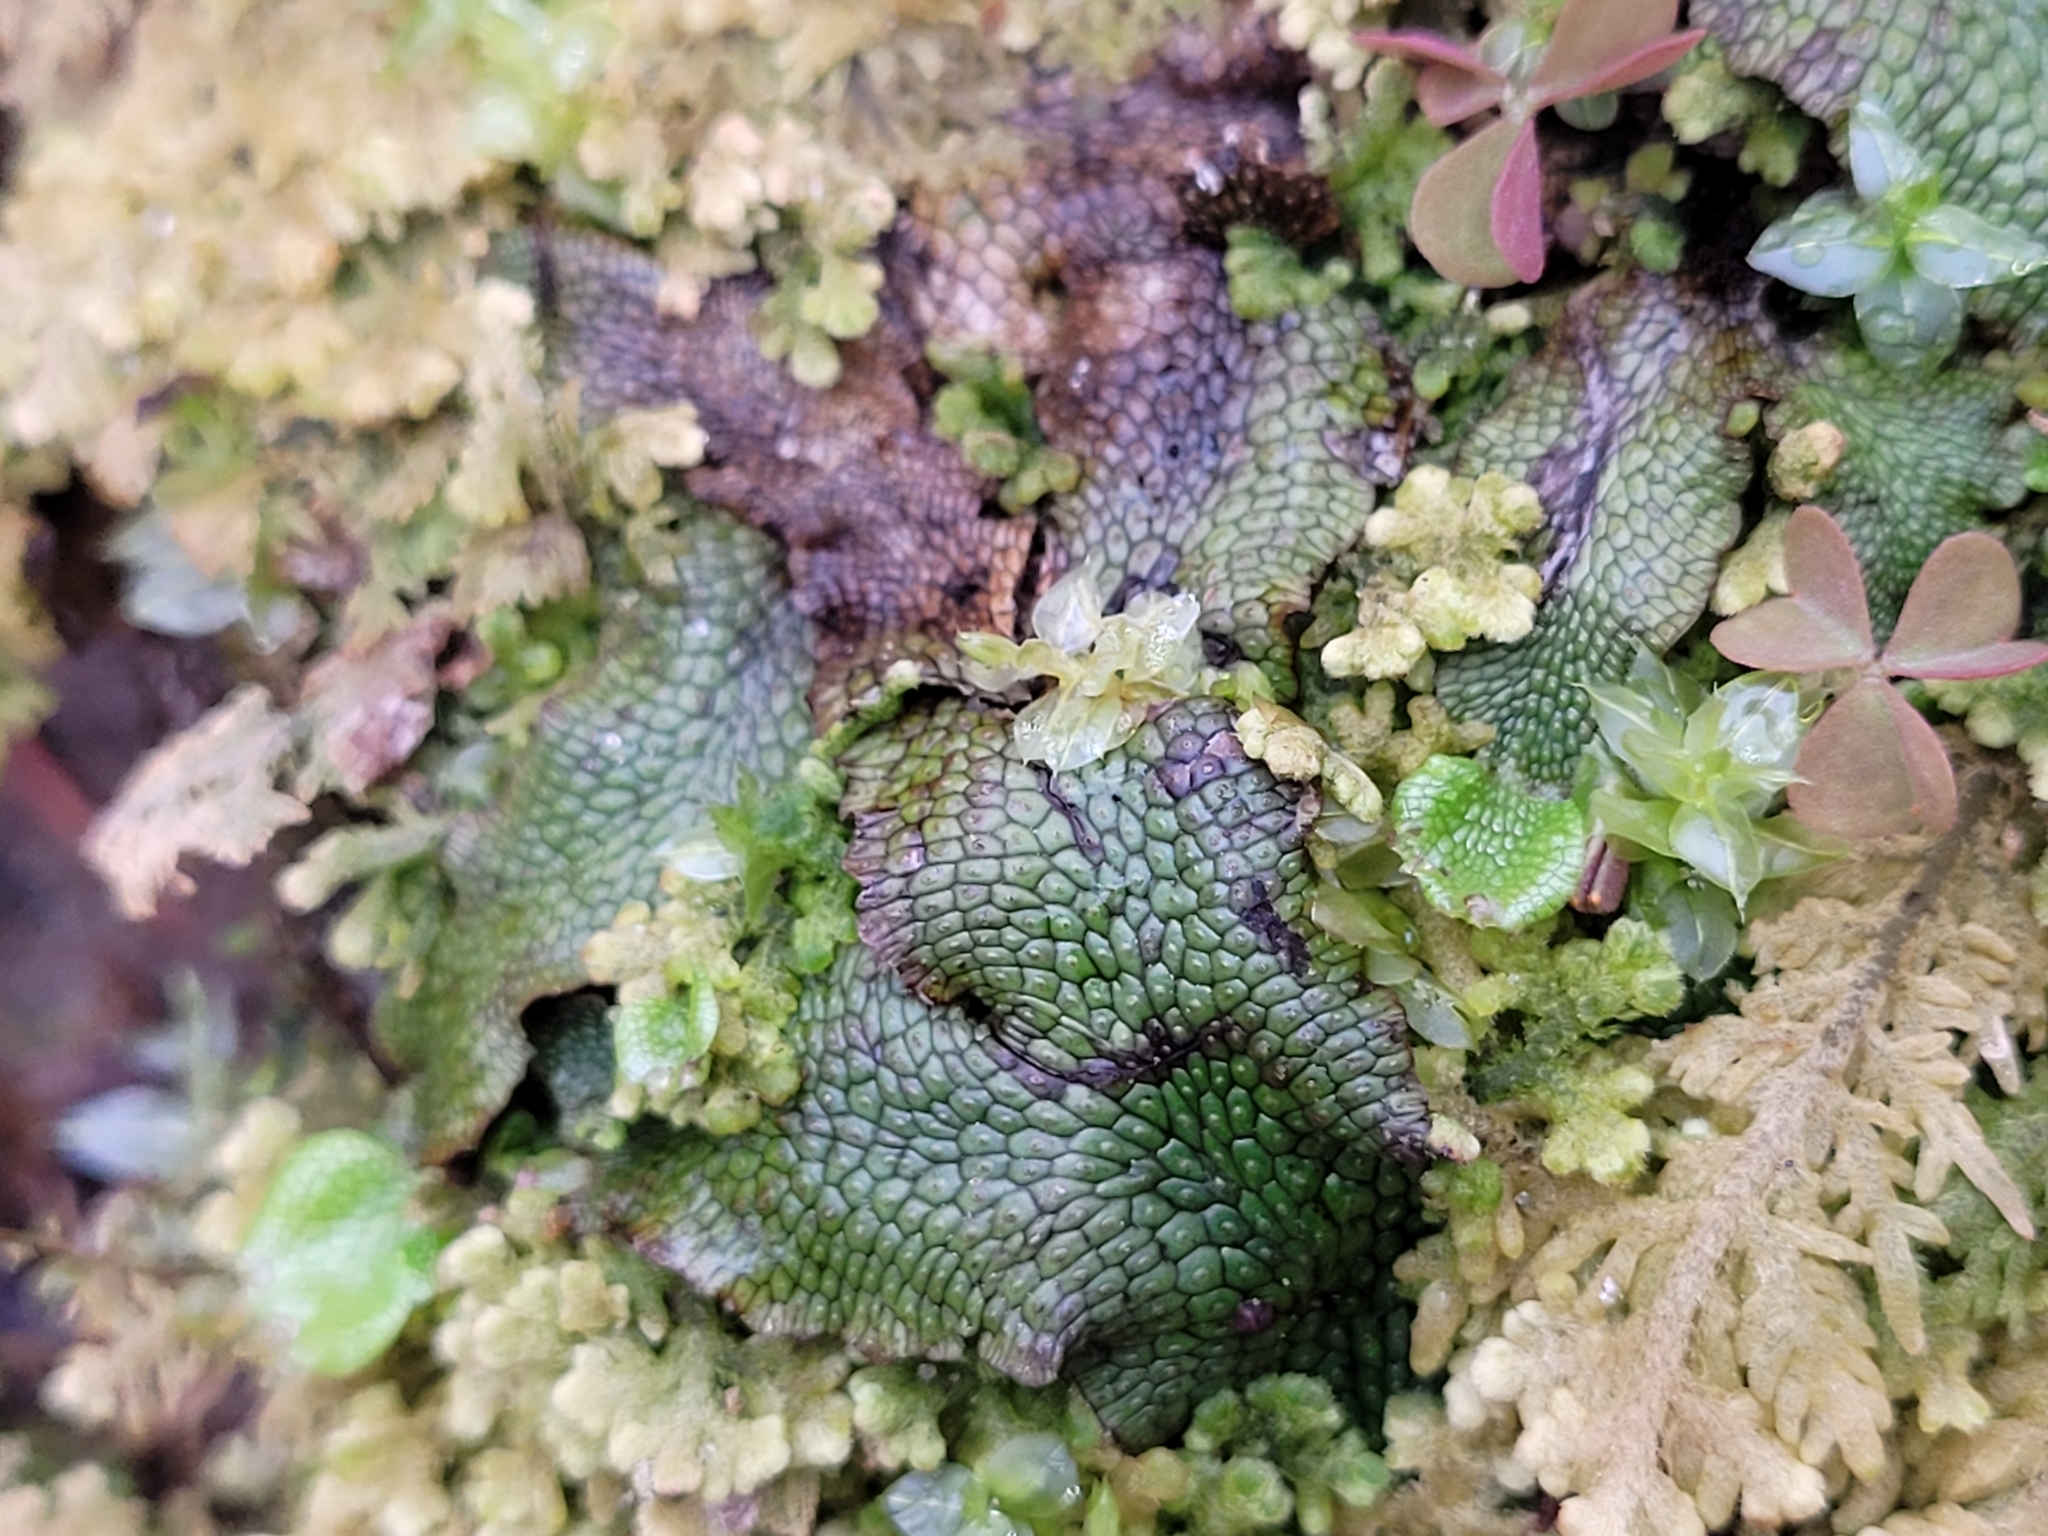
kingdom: Plantae
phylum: Marchantiophyta
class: Marchantiopsida
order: Marchantiales
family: Conocephalaceae
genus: Conocephalum
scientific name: Conocephalum salebrosum
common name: Cat-tongue liverwort
